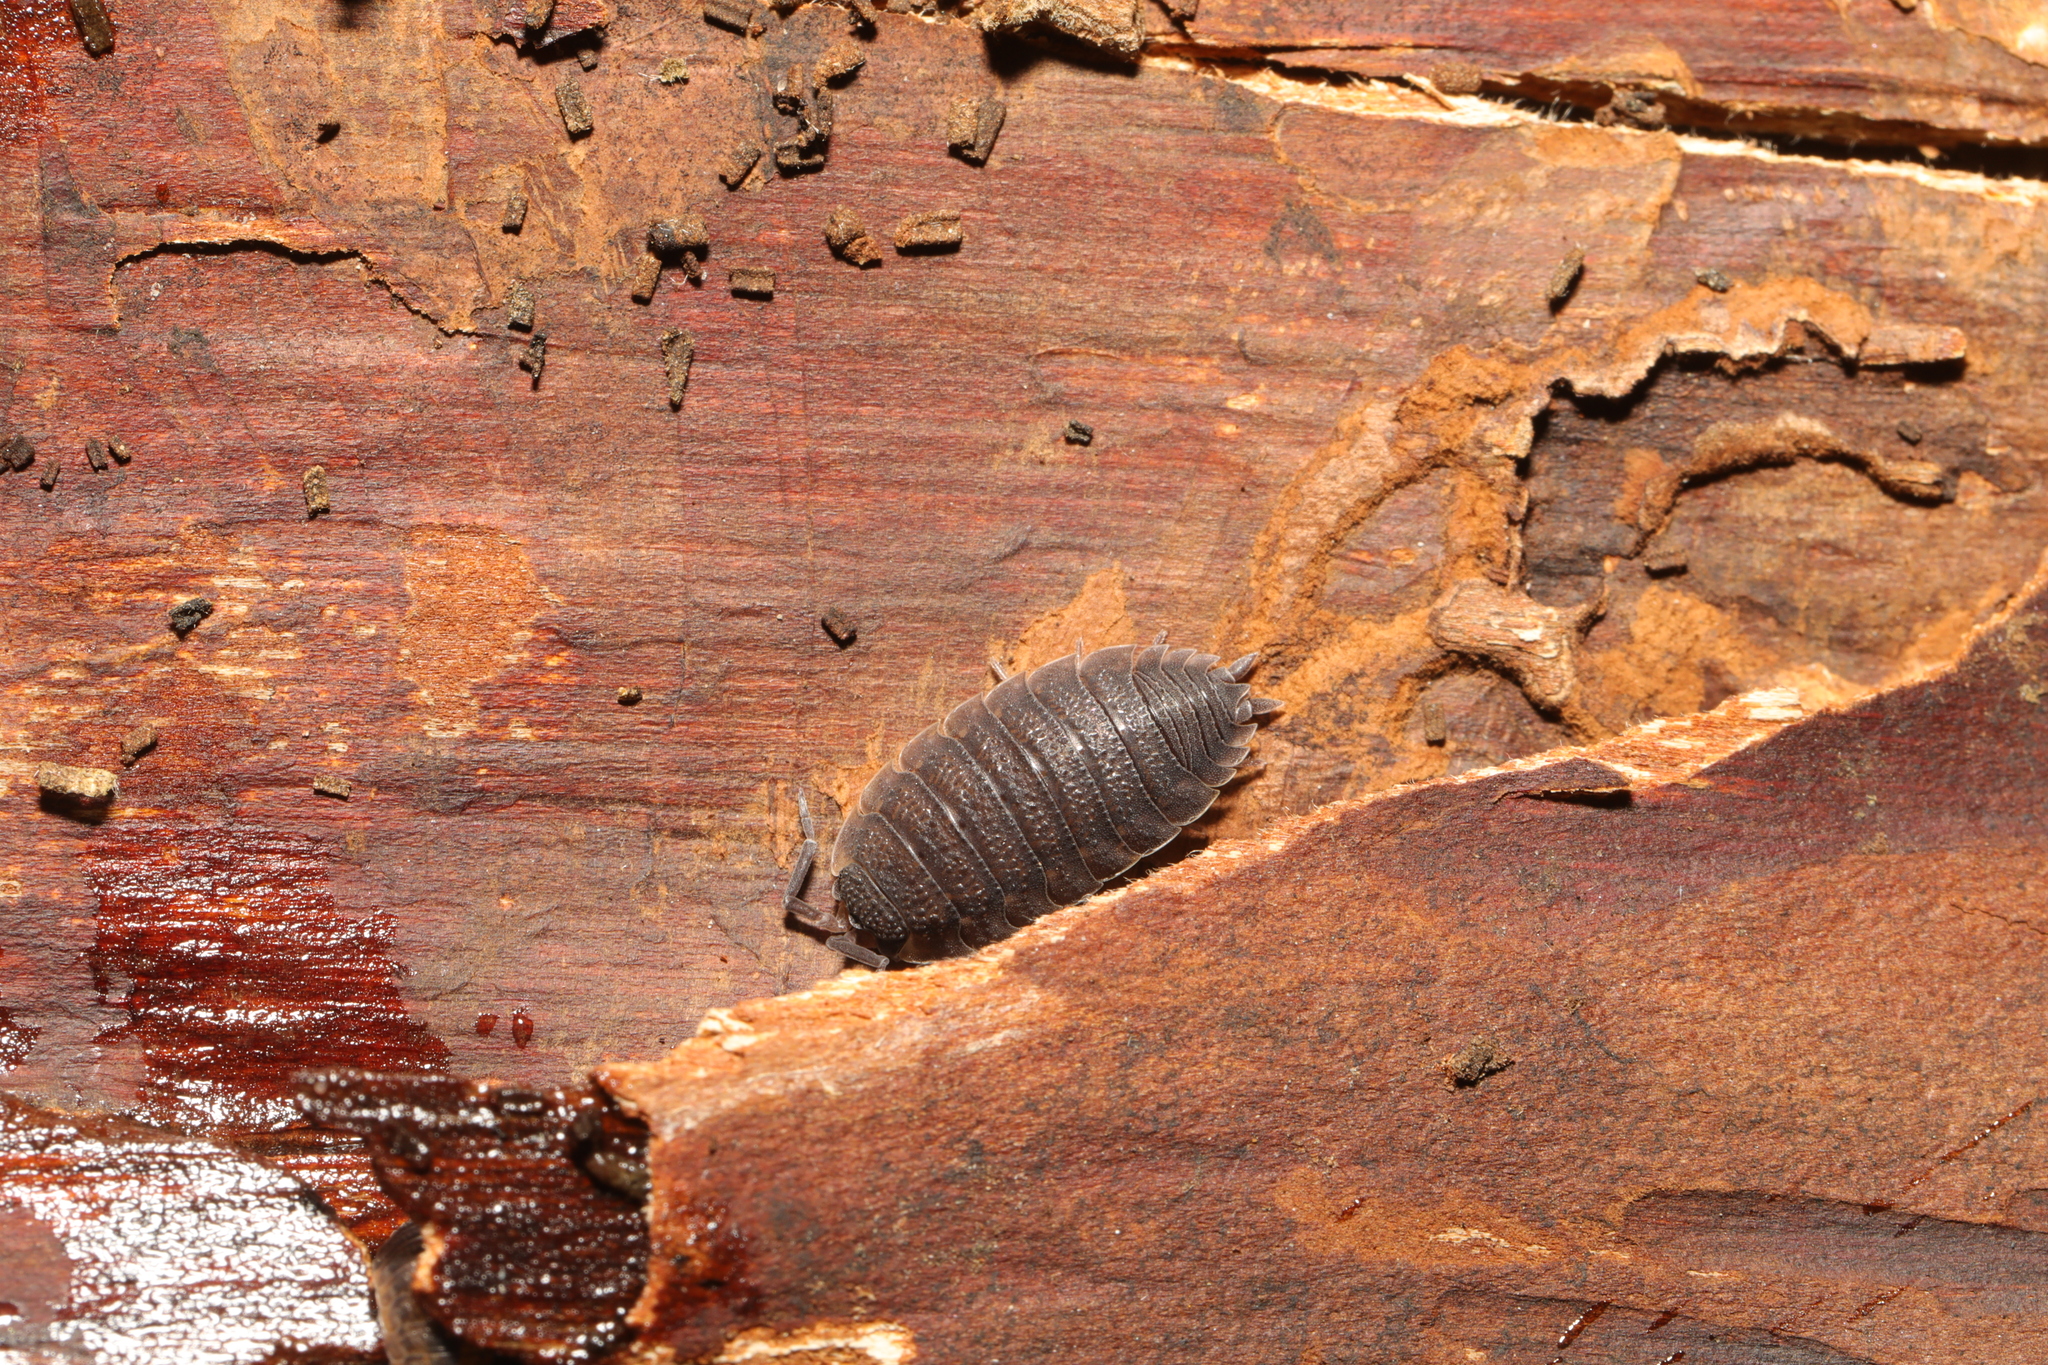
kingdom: Animalia
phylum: Arthropoda
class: Malacostraca
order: Isopoda
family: Porcellionidae
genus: Porcellio
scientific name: Porcellio scaber
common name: Common rough woodlouse
